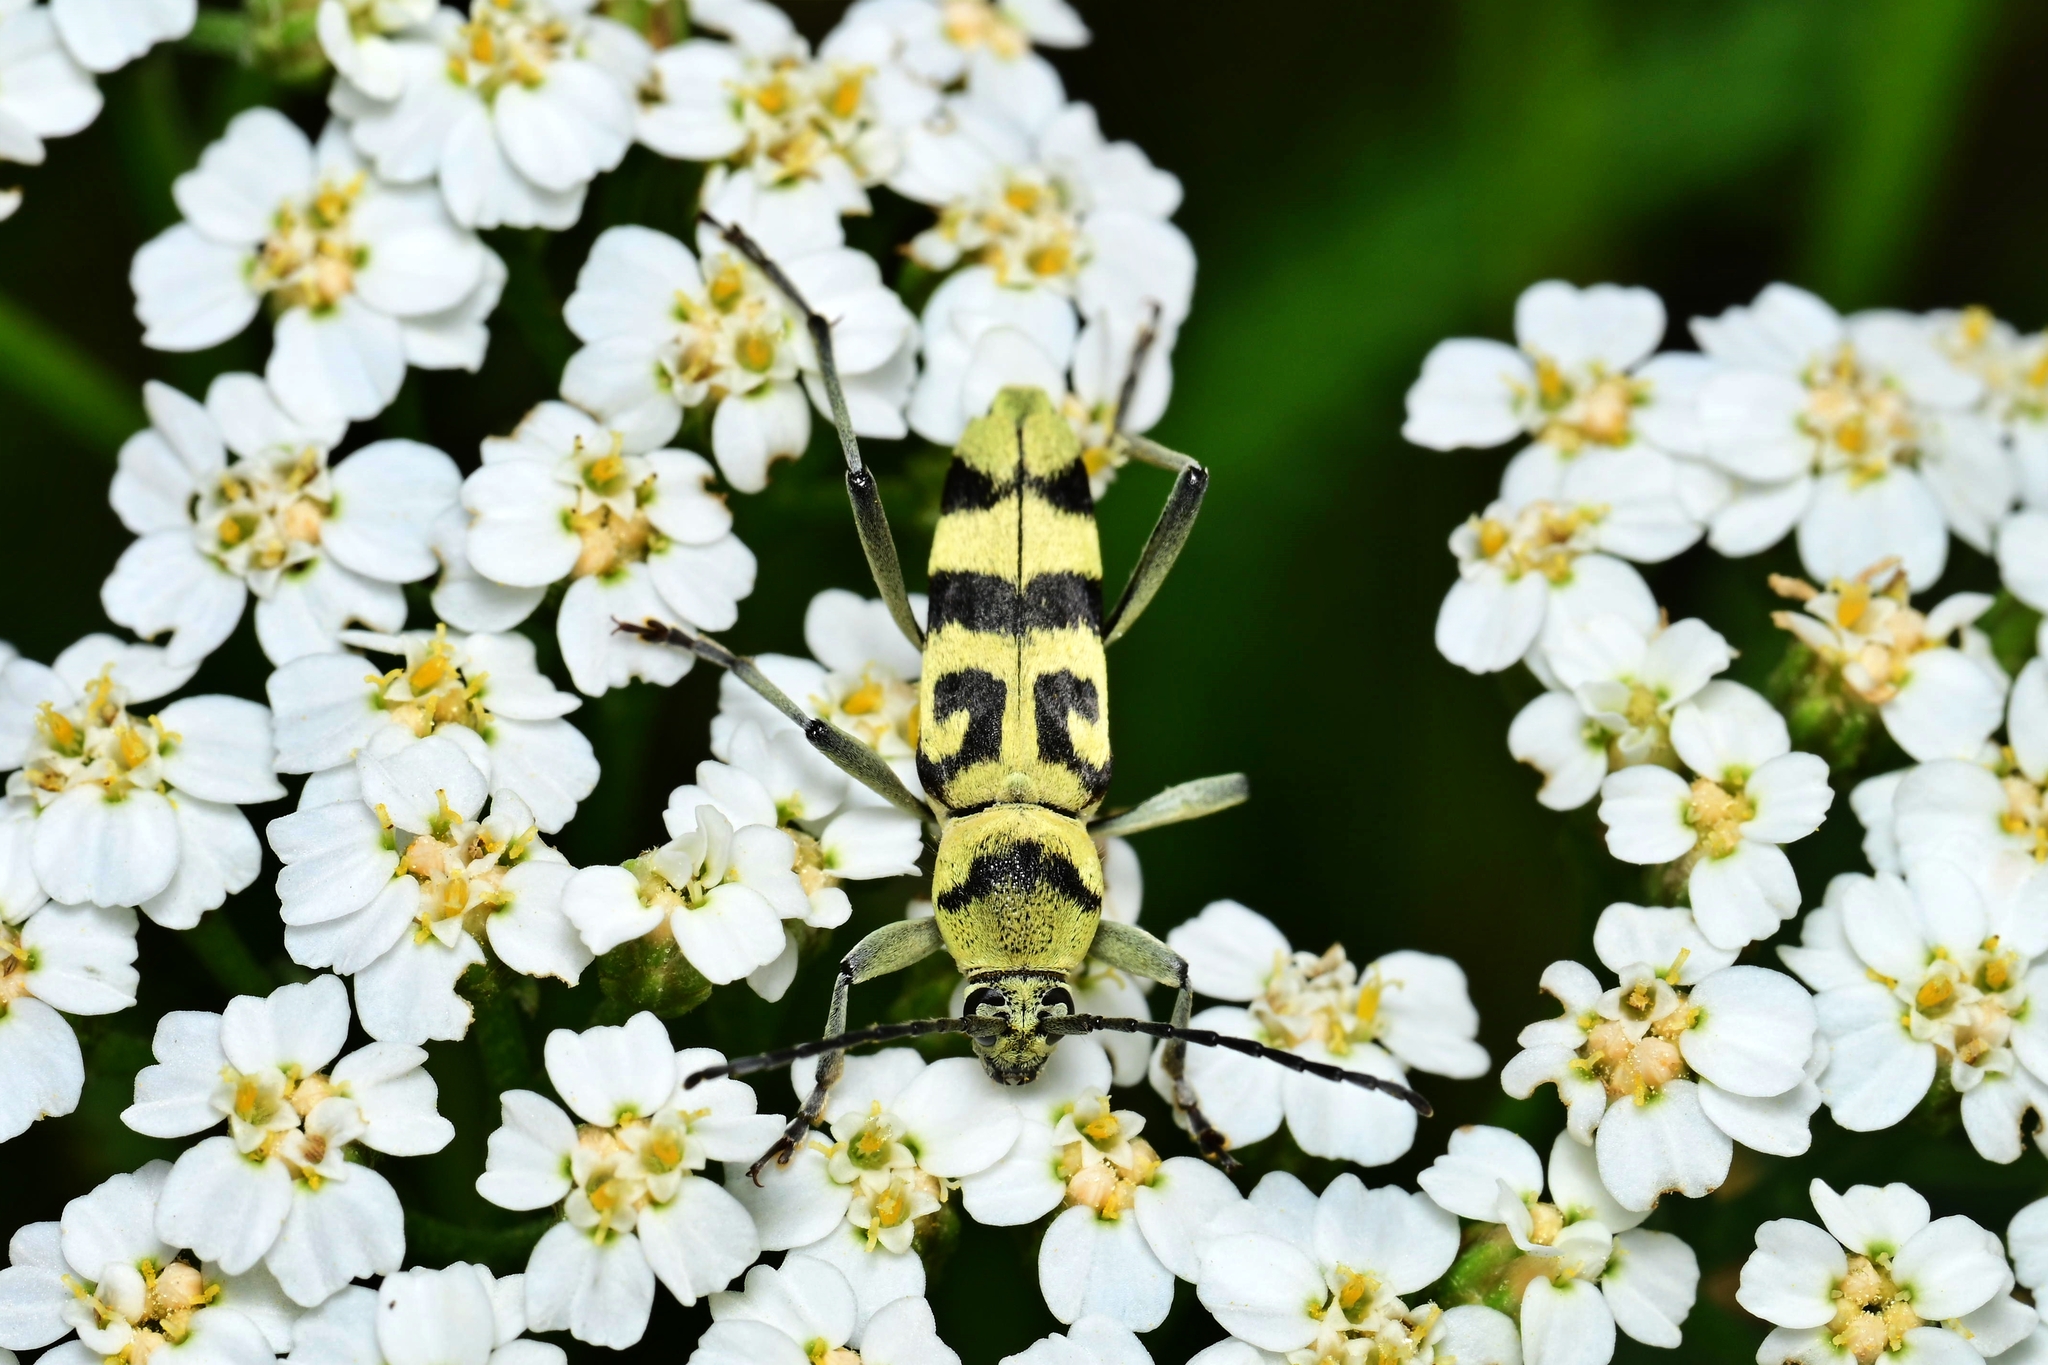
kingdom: Animalia
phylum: Arthropoda
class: Insecta
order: Coleoptera
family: Cerambycidae
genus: Chlorophorus
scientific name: Chlorophorus varius
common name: Grape wood borer
